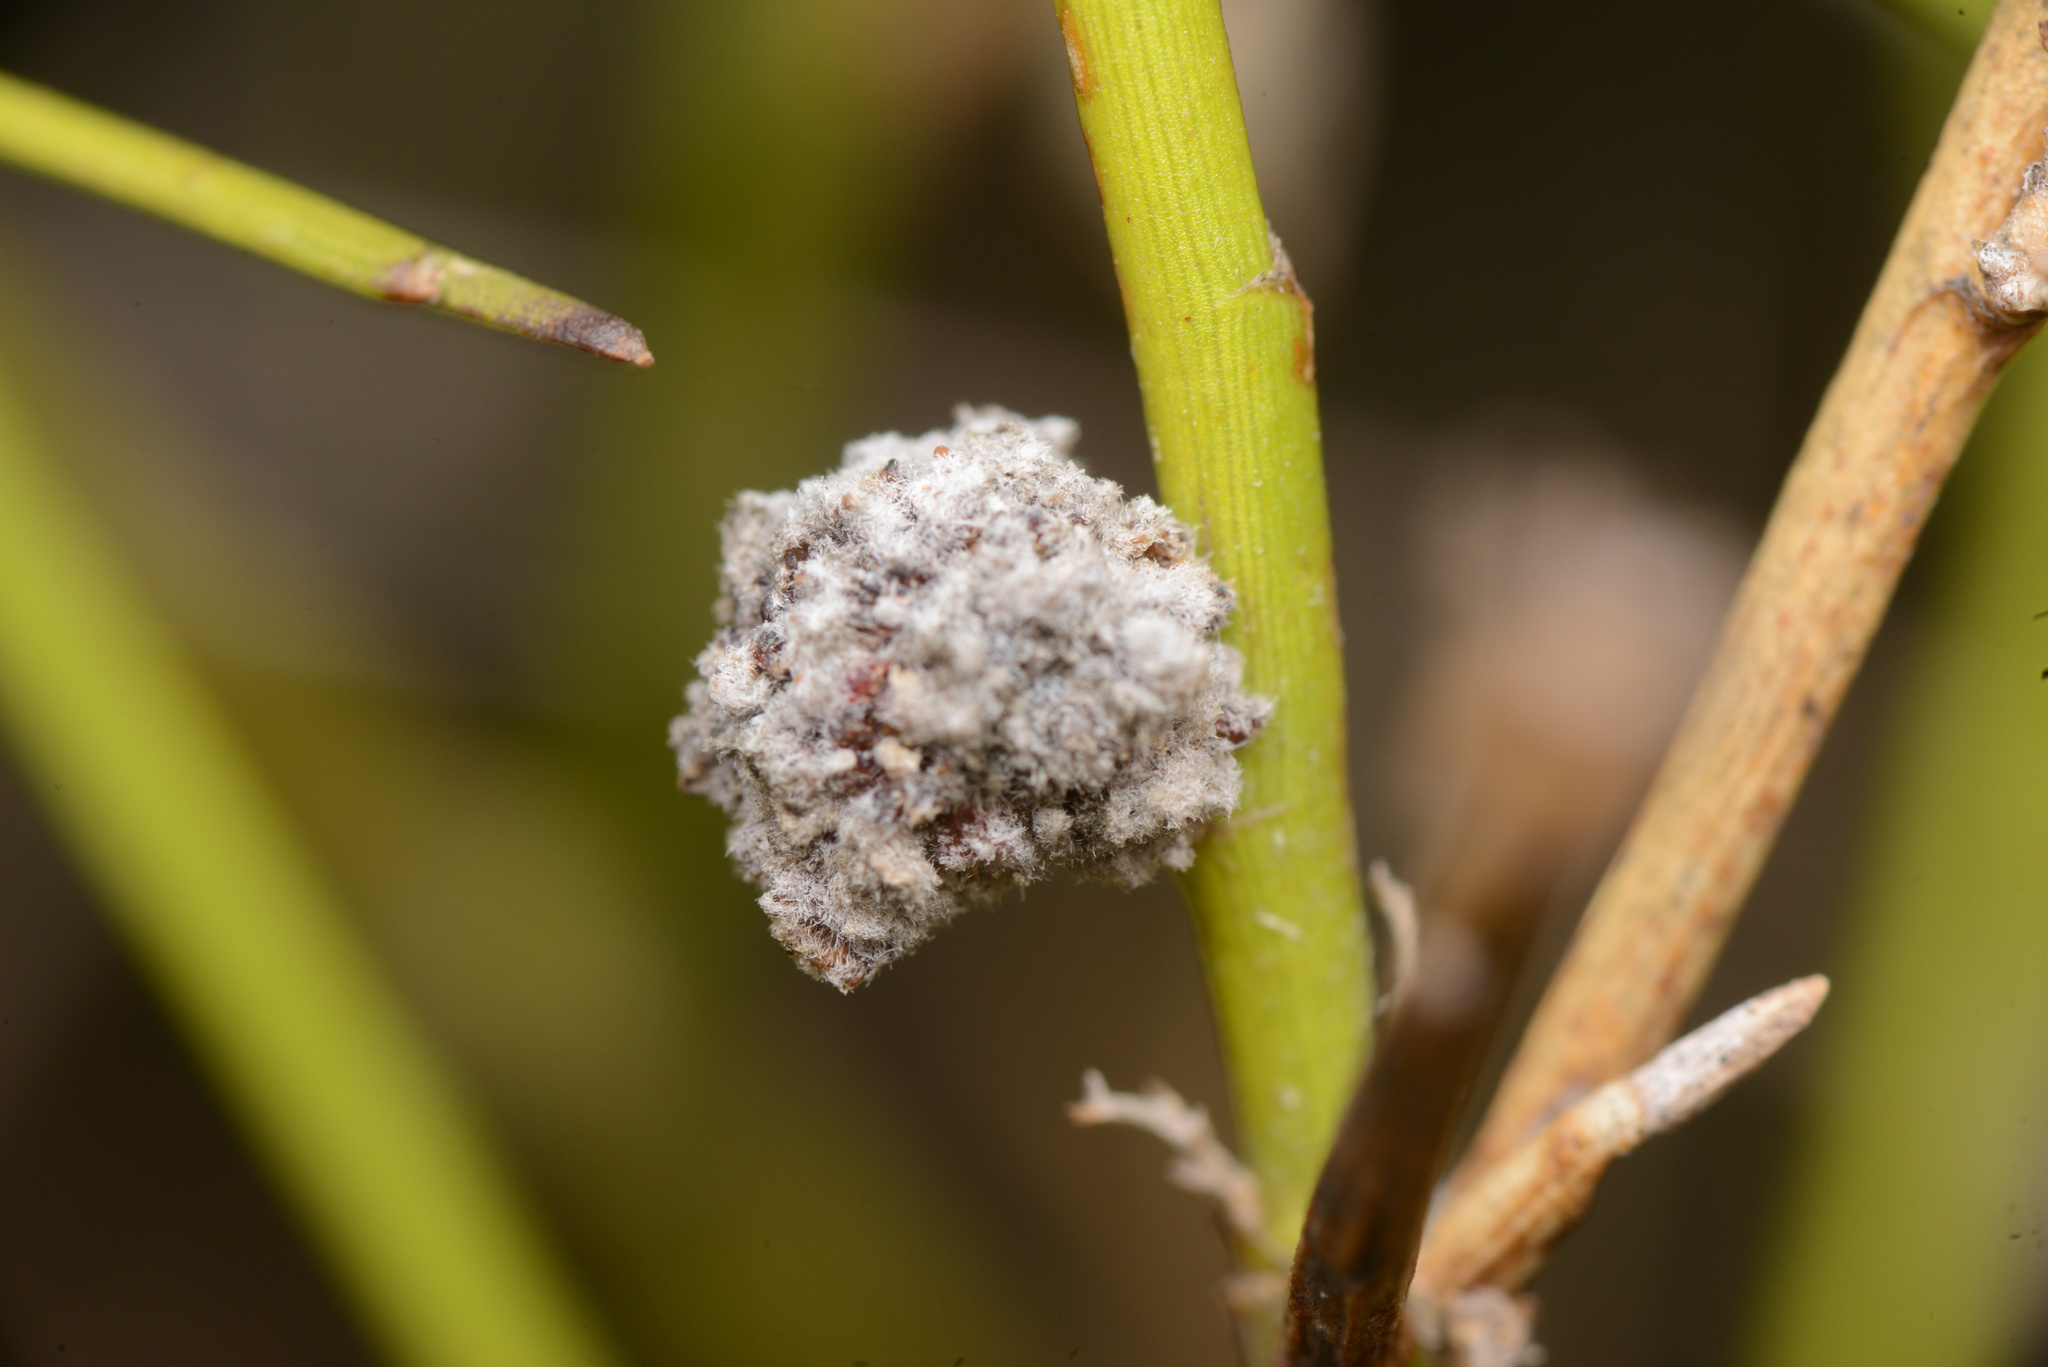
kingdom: Animalia
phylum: Arthropoda
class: Arachnida
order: Trombidiformes
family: Eriophyidae
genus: Aceria
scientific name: Aceria carmichaeliae
